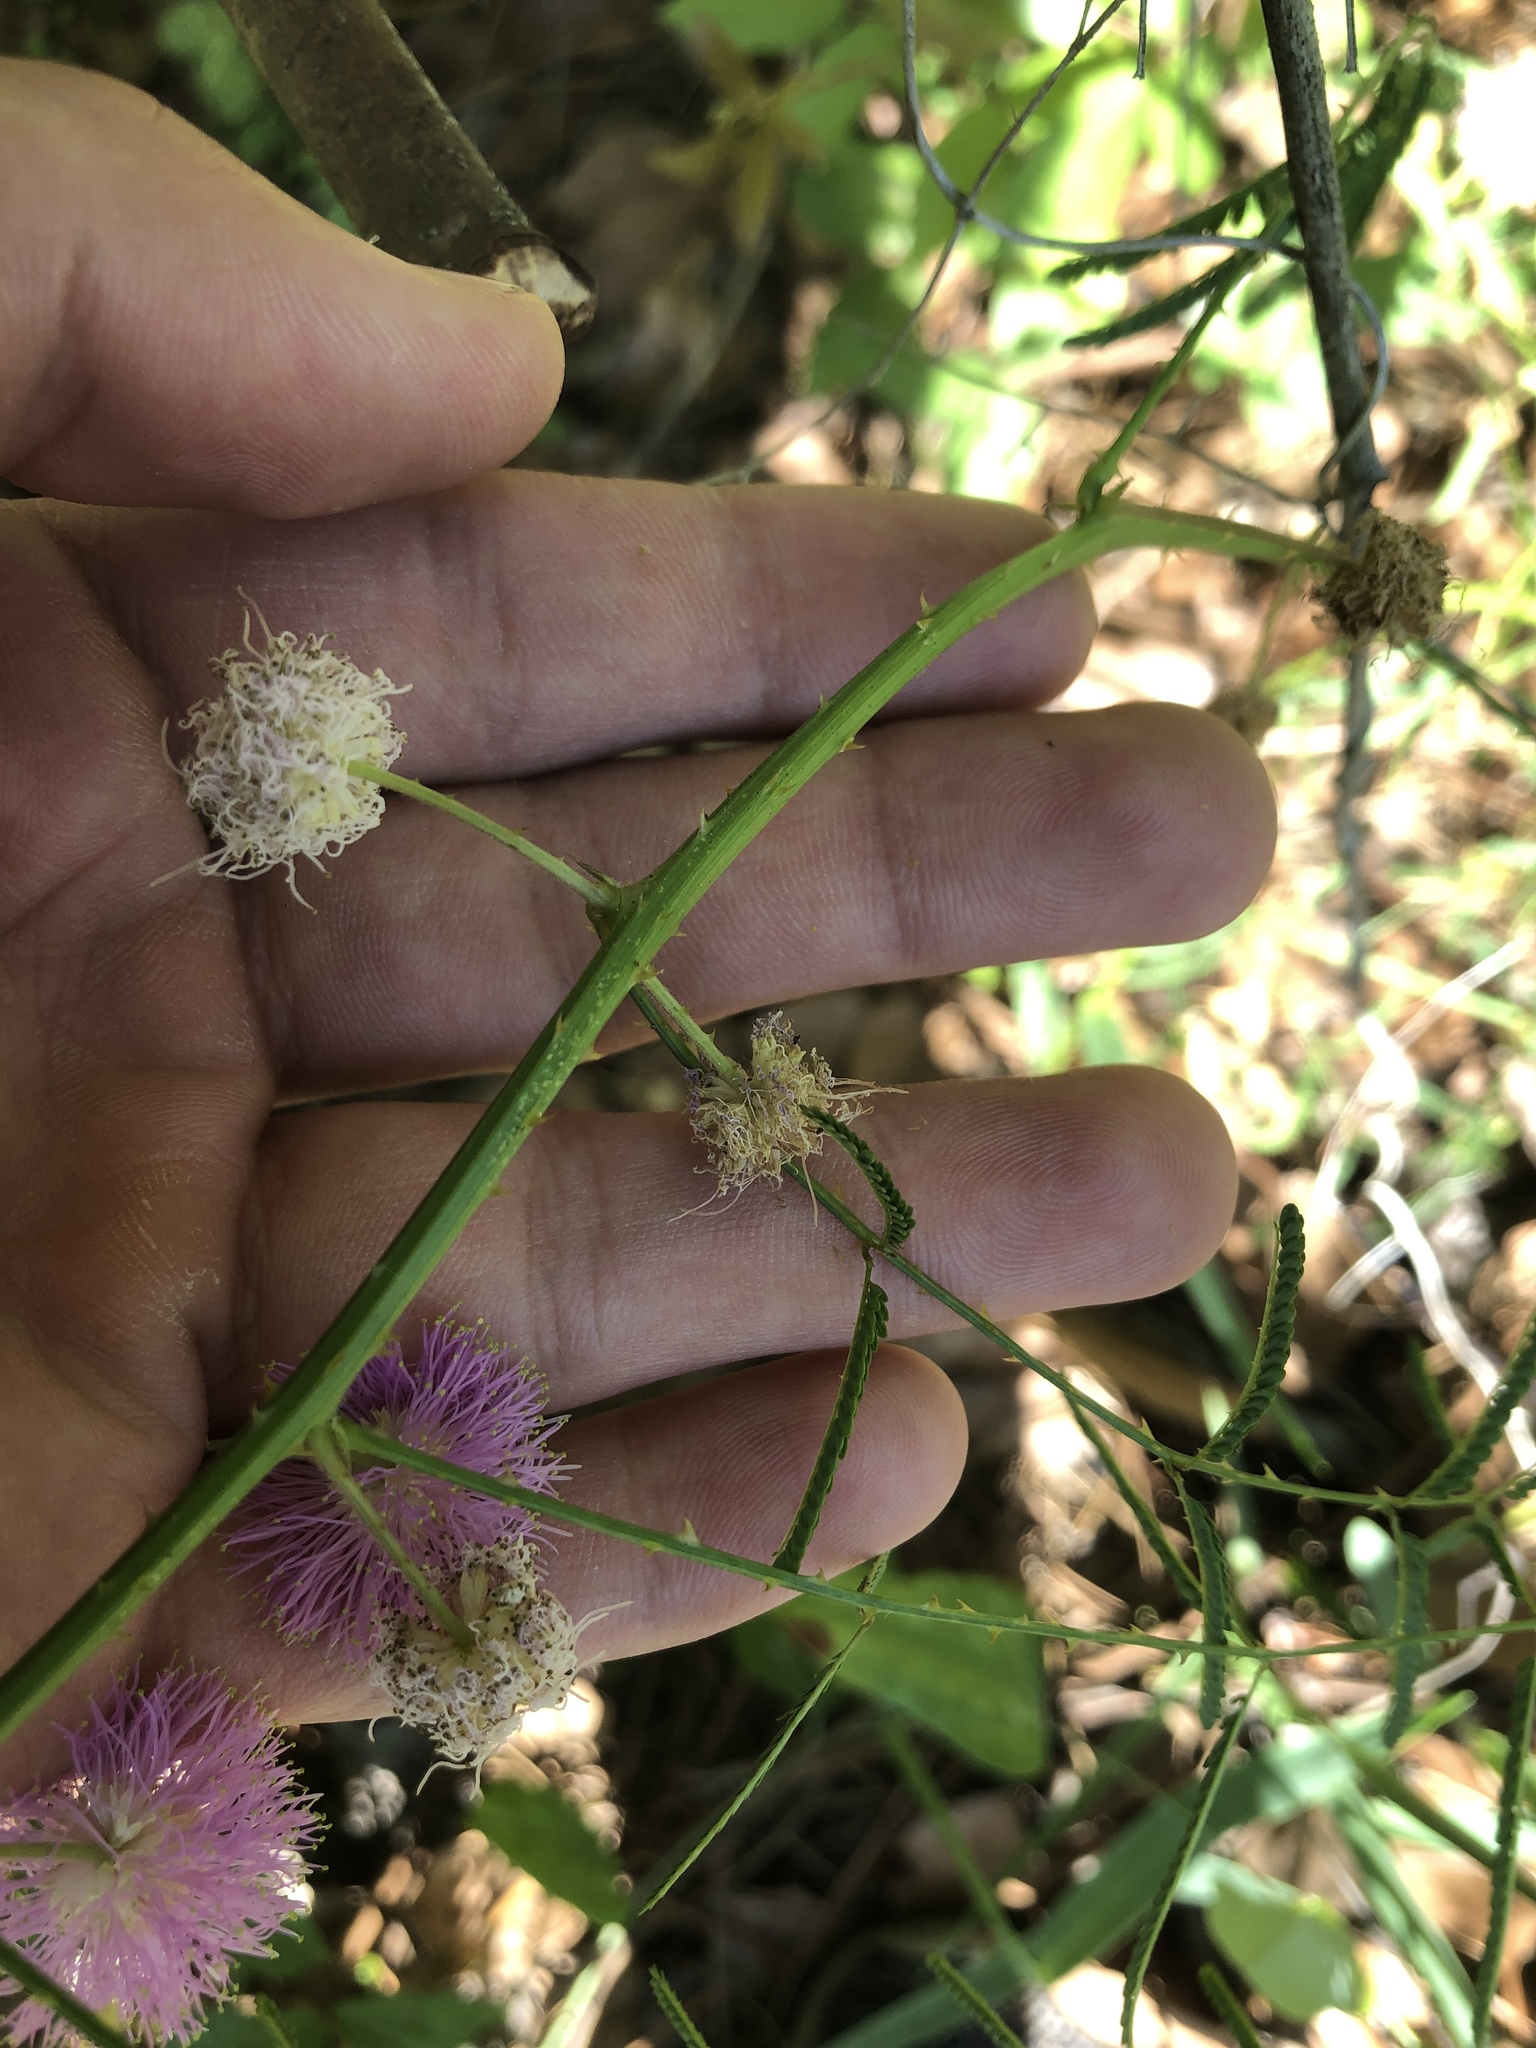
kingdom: Plantae
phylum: Tracheophyta
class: Magnoliopsida
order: Fabales
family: Fabaceae
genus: Mimosa
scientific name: Mimosa quadrivalvis
